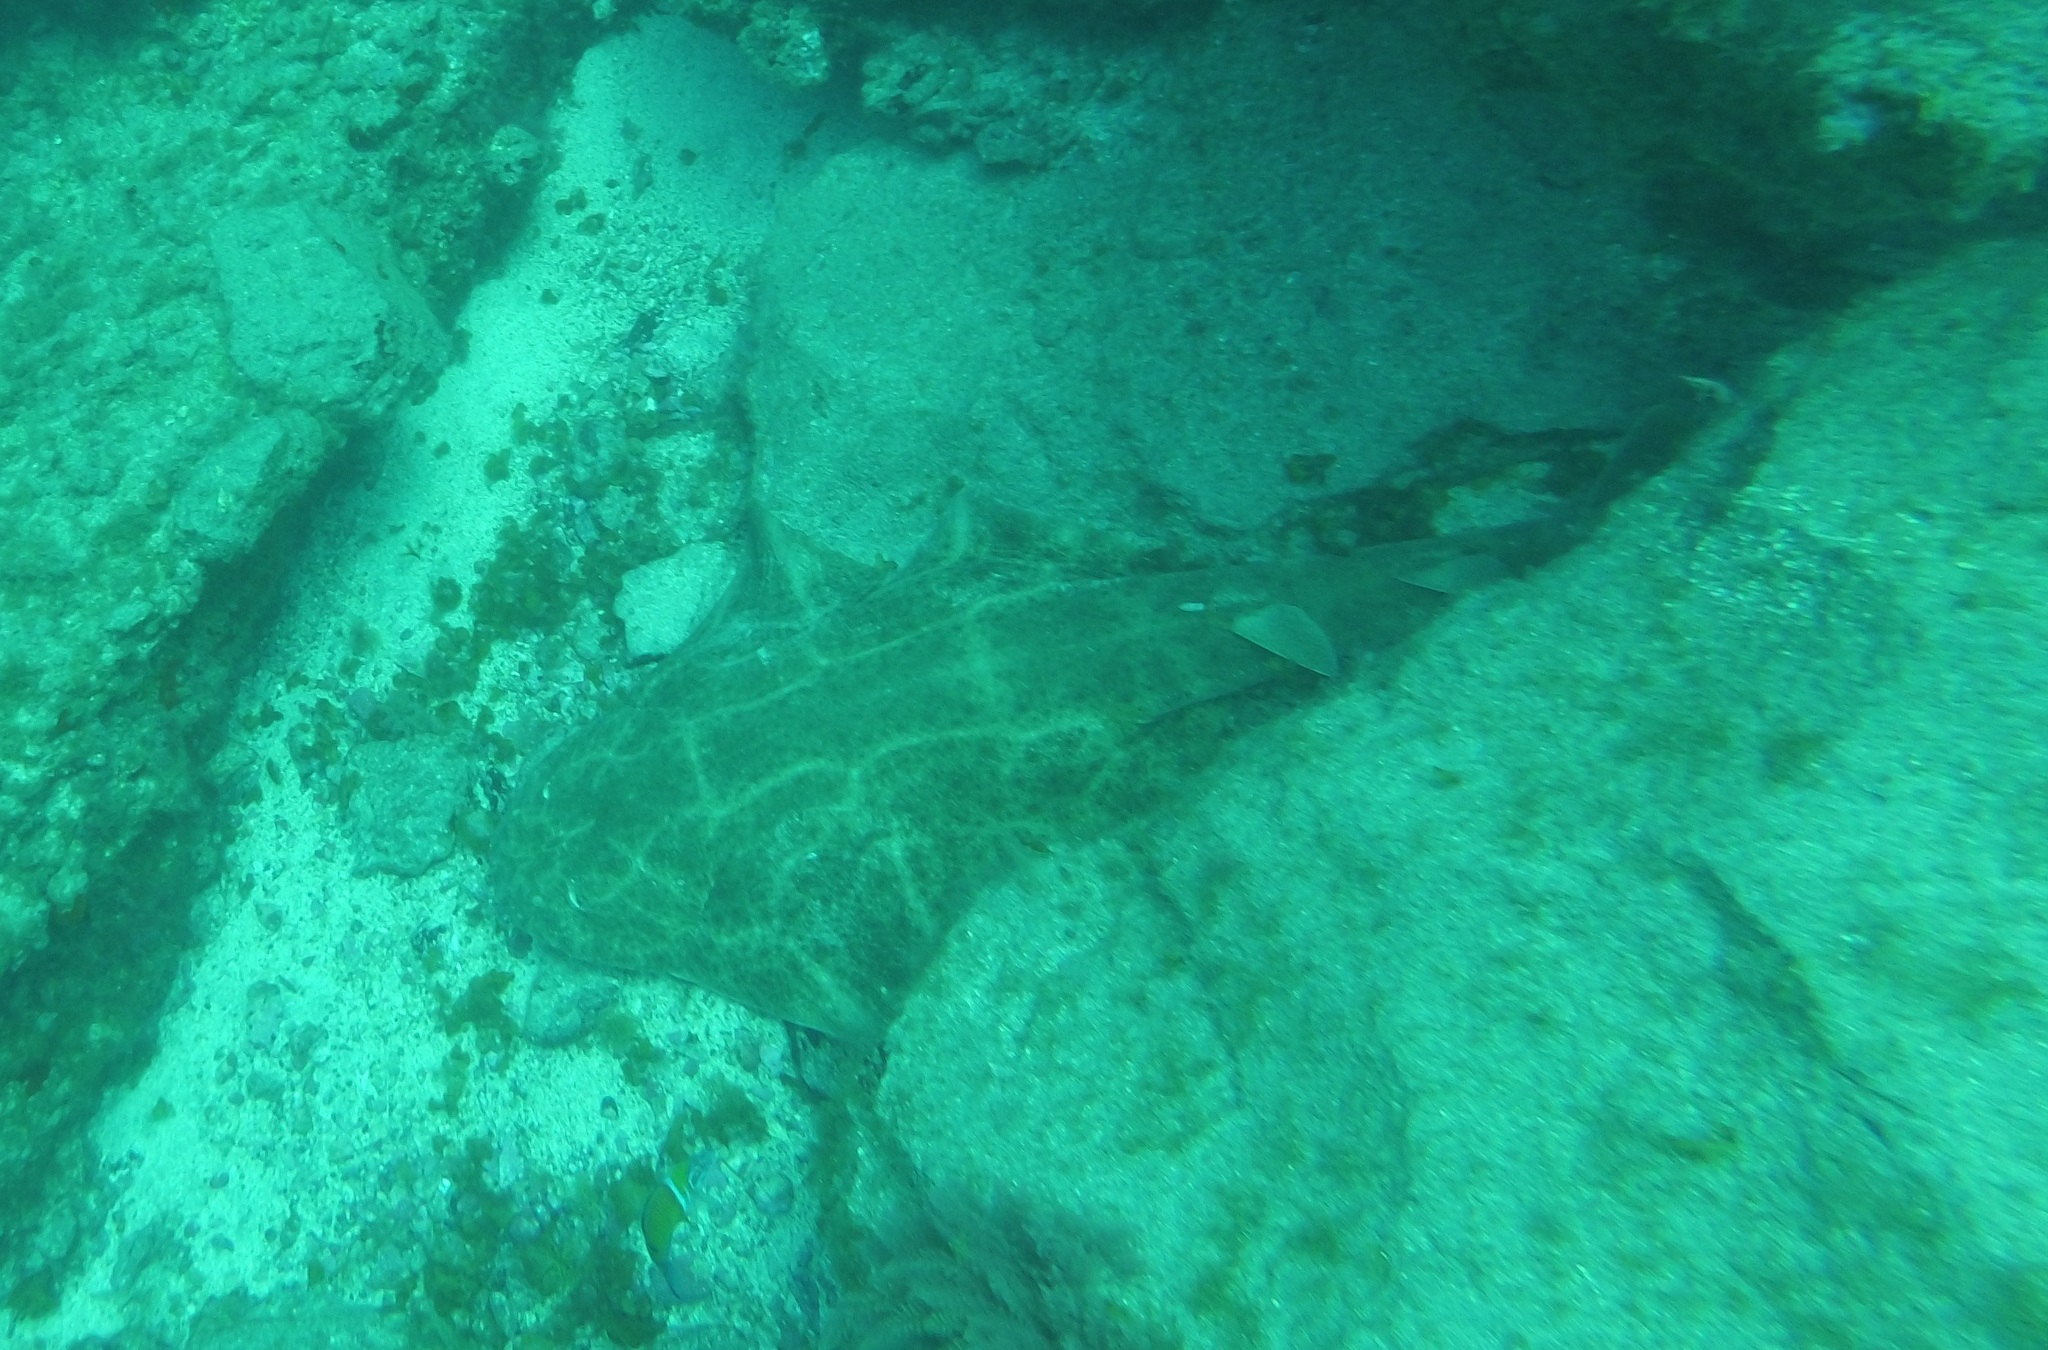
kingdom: Animalia
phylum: Chordata
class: Elasmobranchii
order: Squatiniformes
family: Squatinidae
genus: Squatina
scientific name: Squatina squatina
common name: Angel shark
